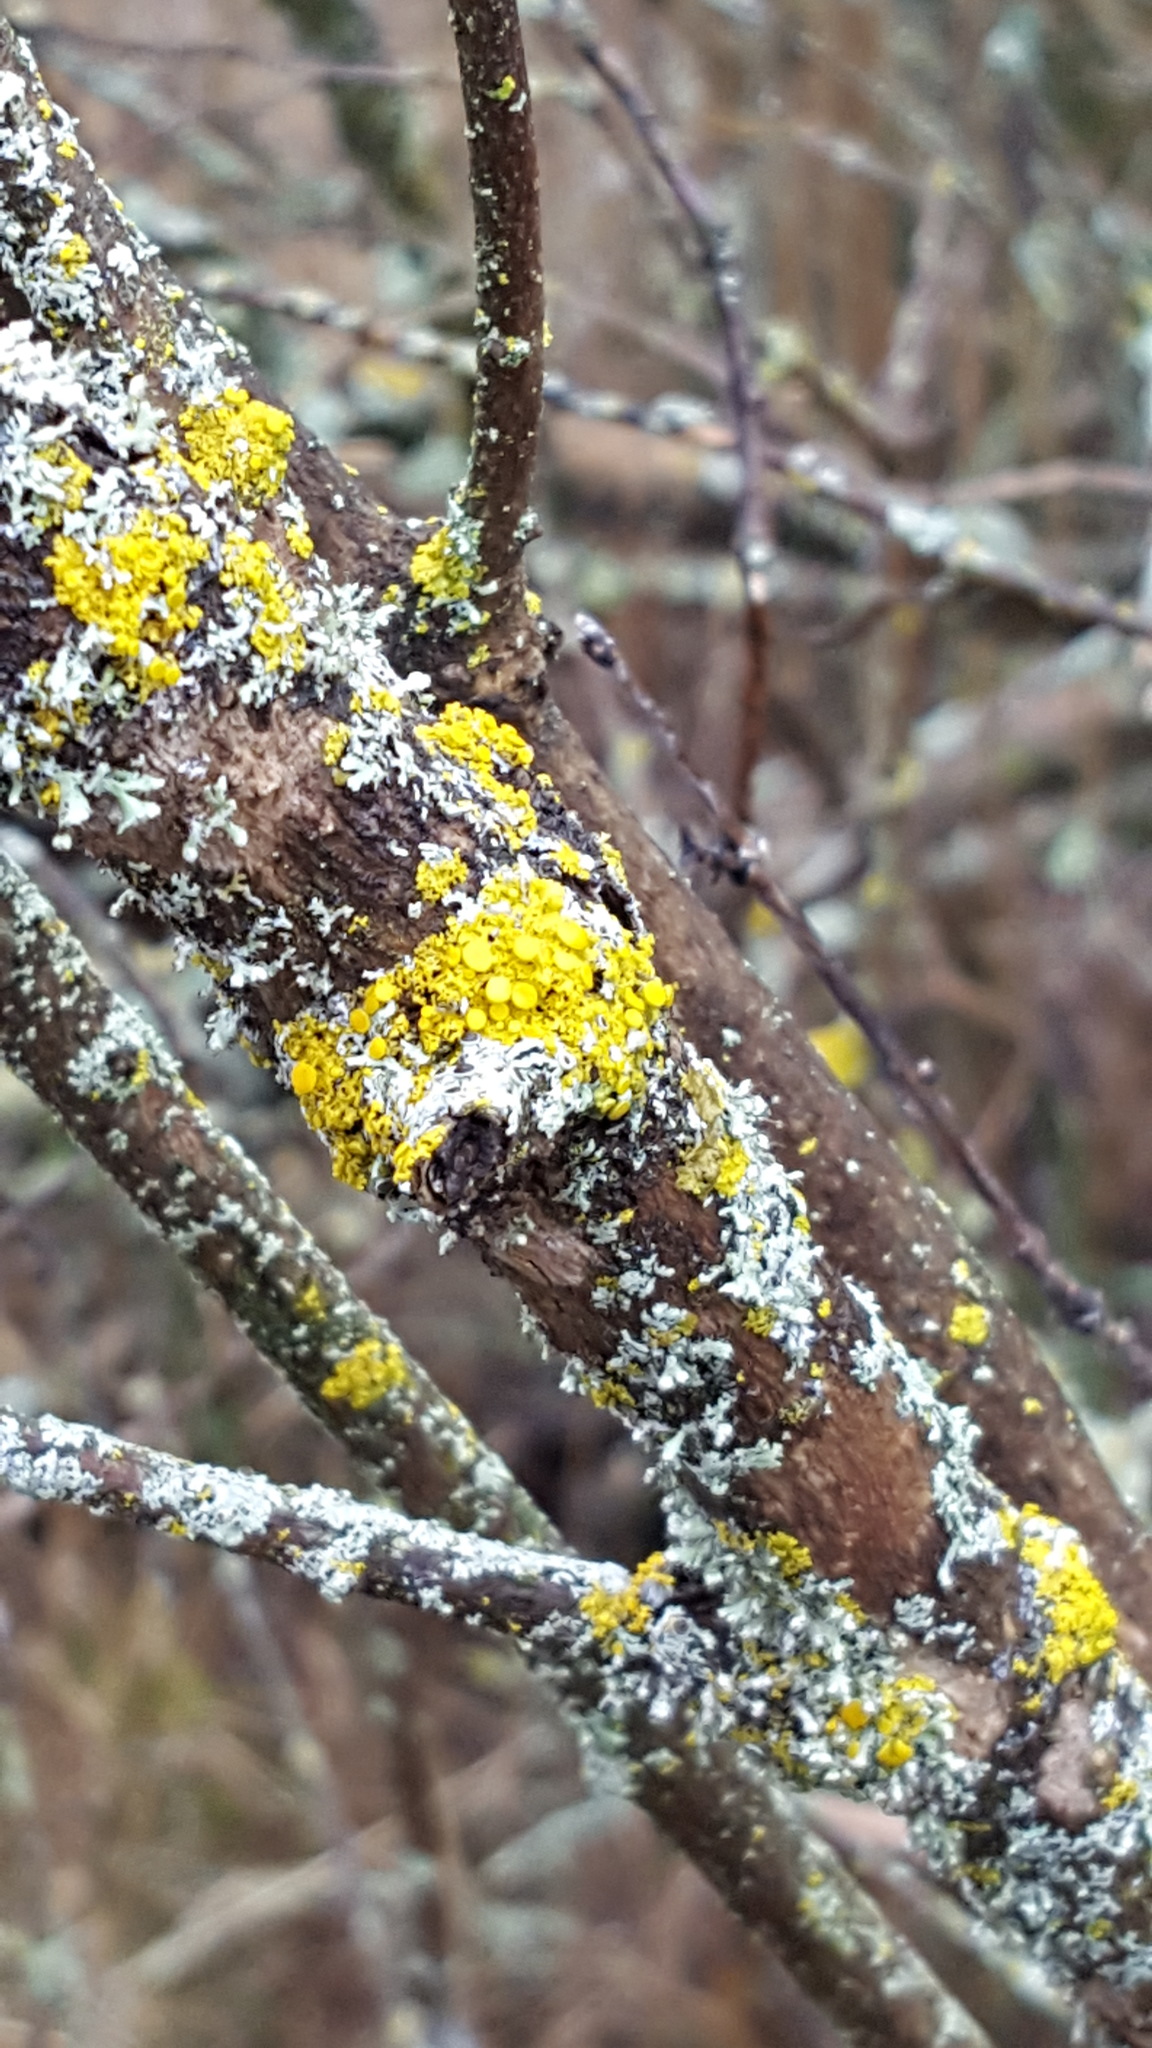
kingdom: Fungi
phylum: Ascomycota
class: Lecanoromycetes
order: Teloschistales
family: Teloschistaceae
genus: Polycauliona
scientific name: Polycauliona polycarpa
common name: Pin-cushion sunburst lichen
